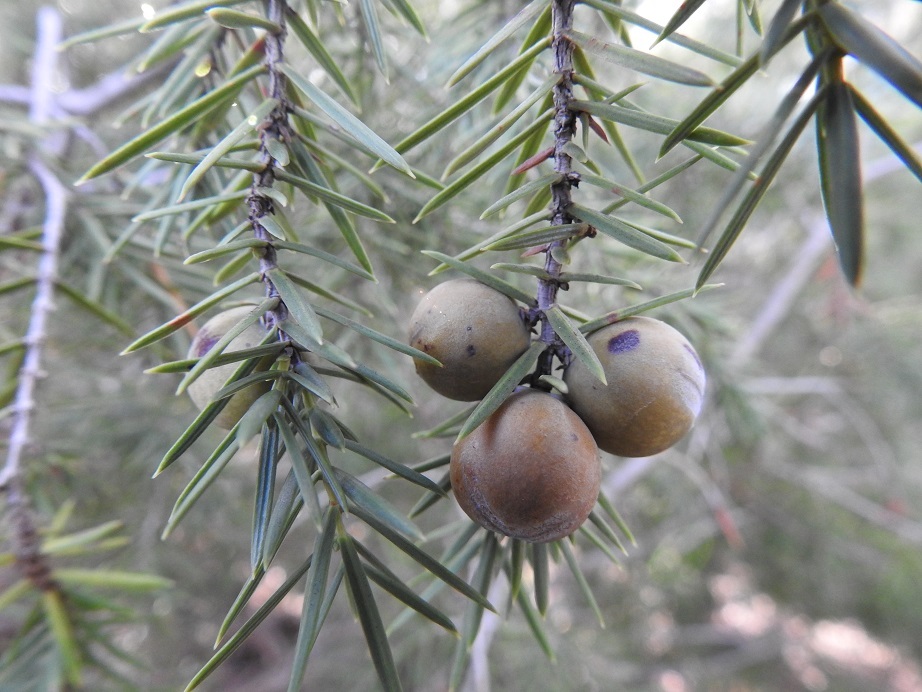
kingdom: Plantae
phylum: Tracheophyta
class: Pinopsida
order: Pinales
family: Cupressaceae
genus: Juniperus
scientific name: Juniperus oxycedrus
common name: Prickly juniper
